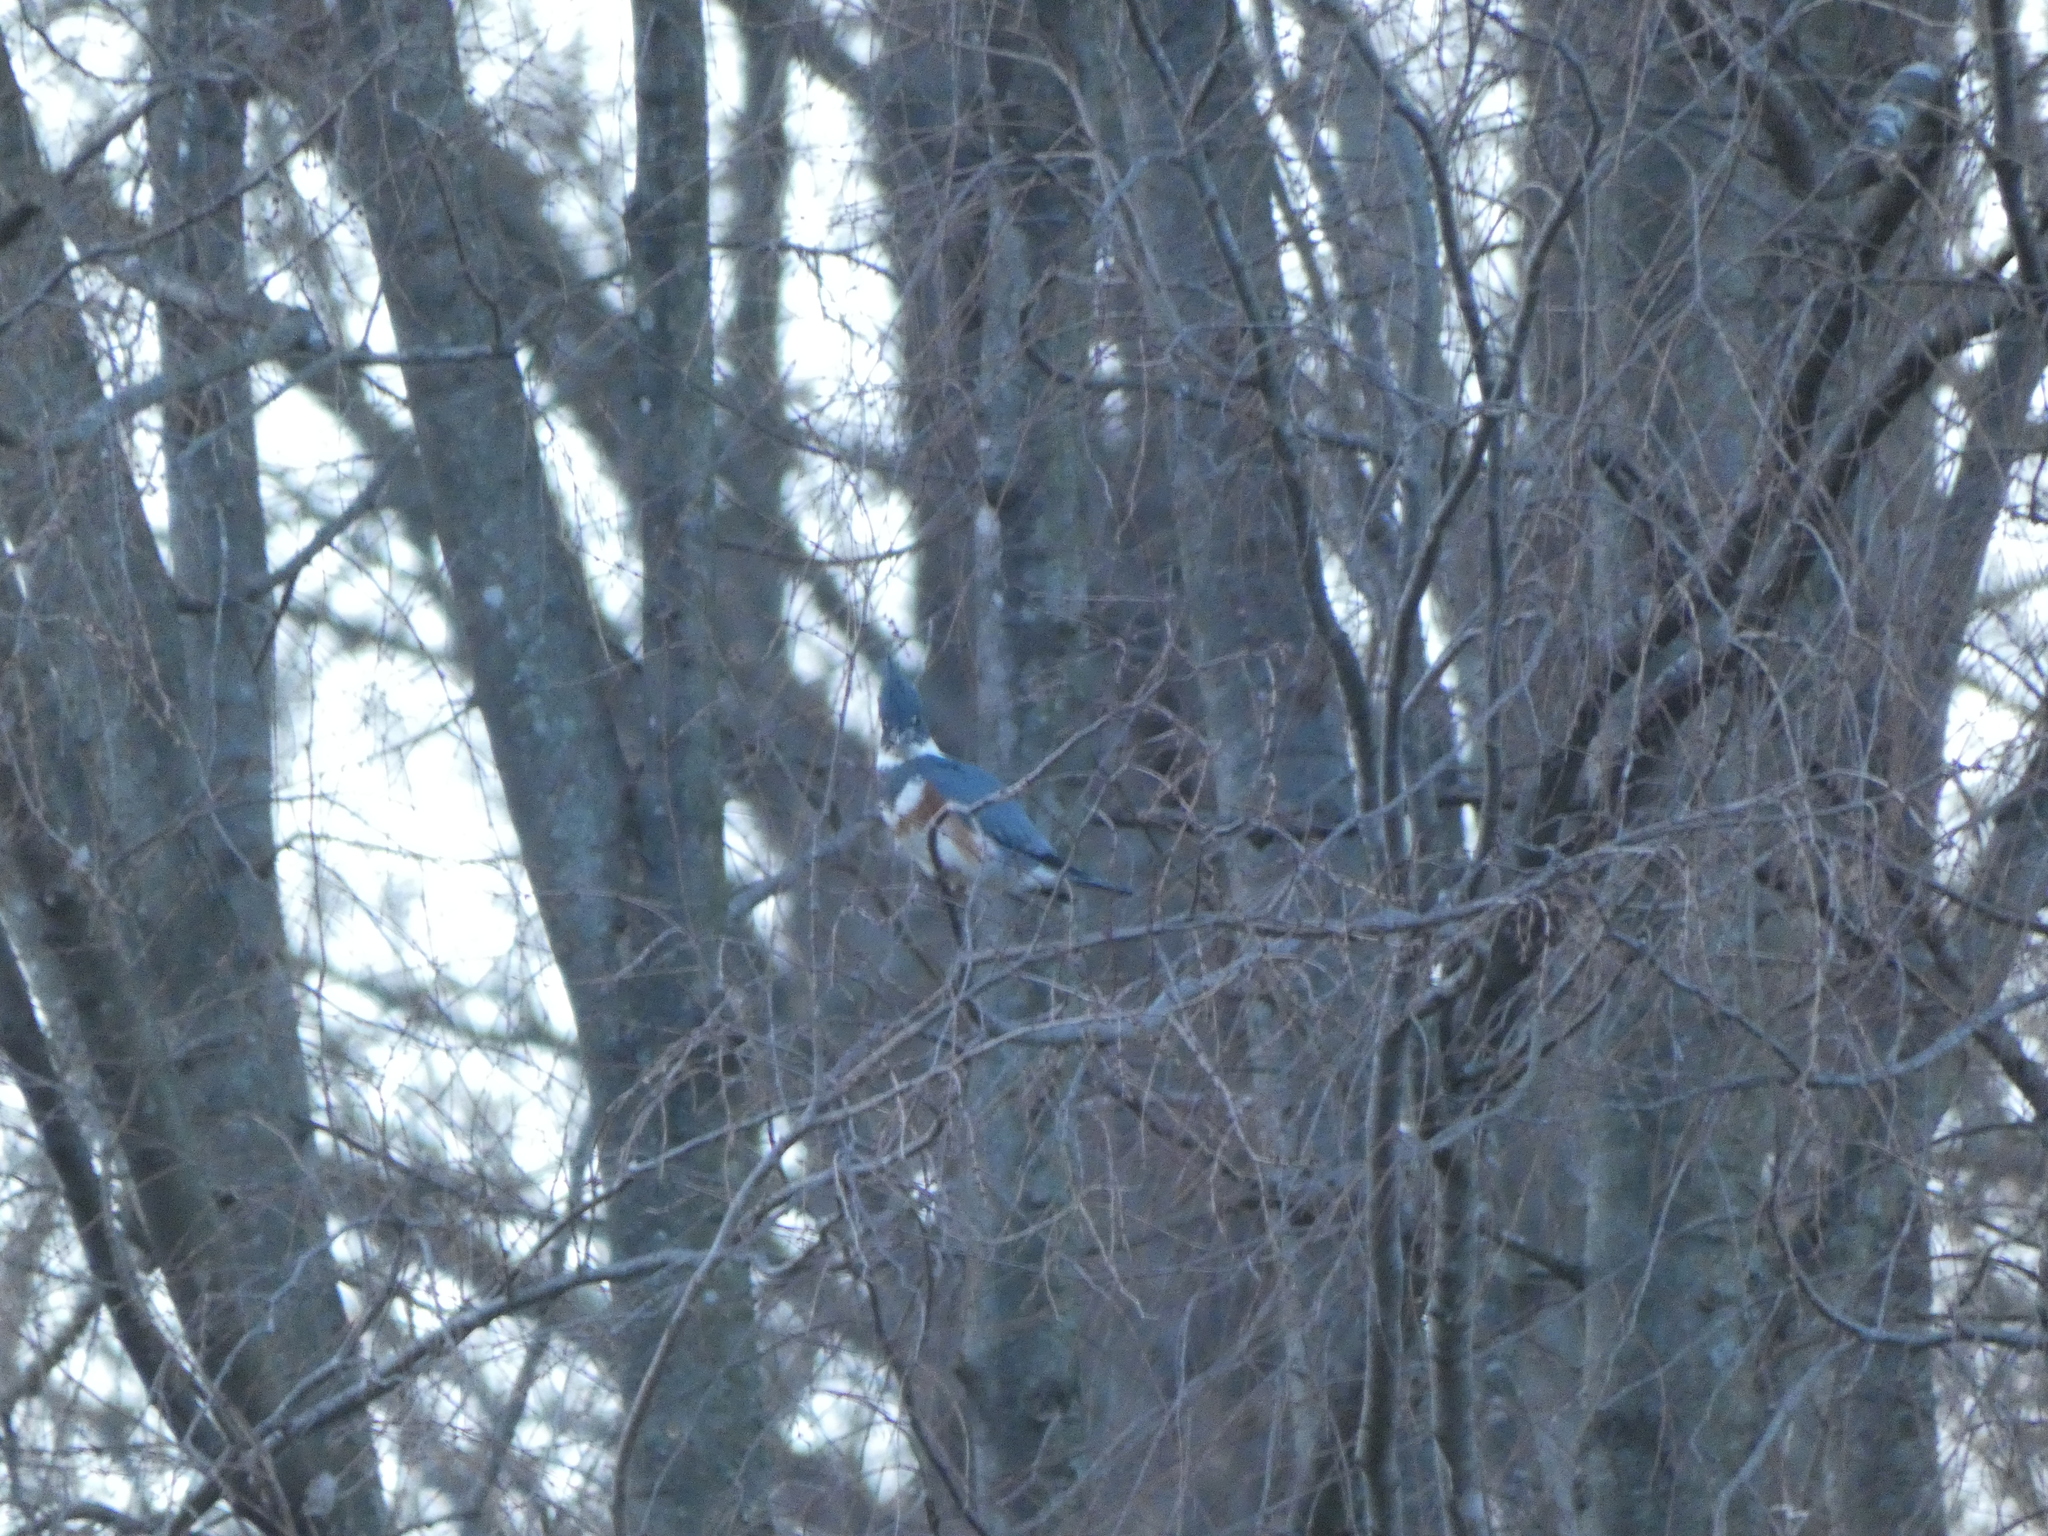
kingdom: Animalia
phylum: Chordata
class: Aves
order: Coraciiformes
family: Alcedinidae
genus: Megaceryle
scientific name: Megaceryle alcyon
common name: Belted kingfisher
